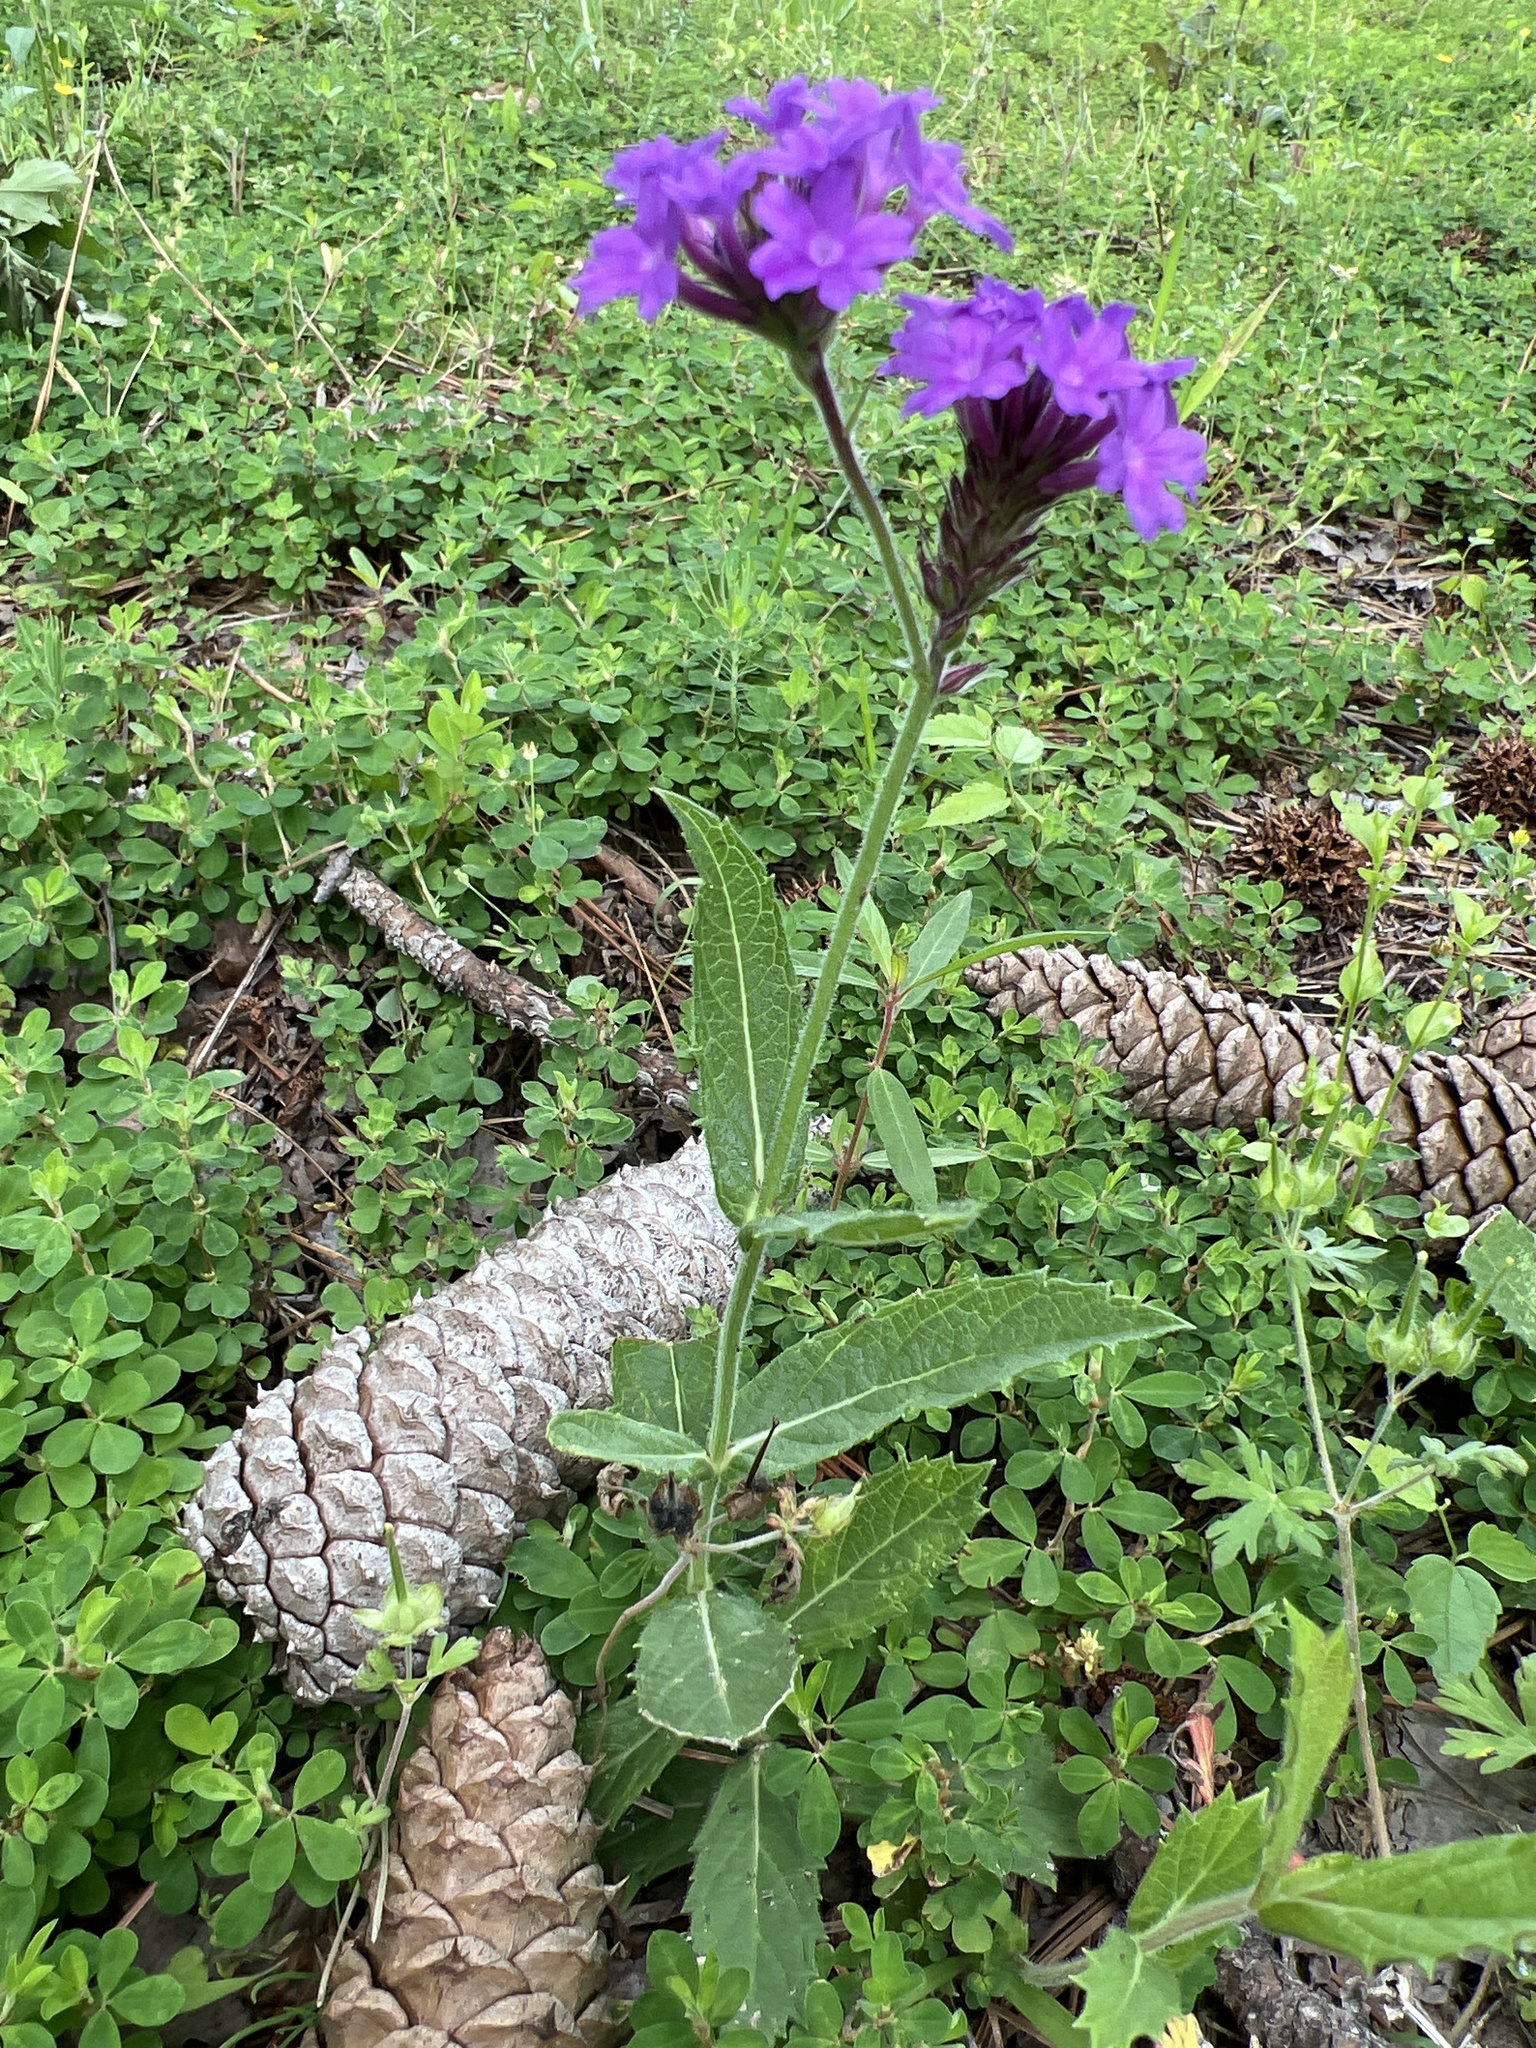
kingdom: Plantae
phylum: Tracheophyta
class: Magnoliopsida
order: Lamiales
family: Verbenaceae
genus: Verbena
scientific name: Verbena rigida
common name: Slender vervain
